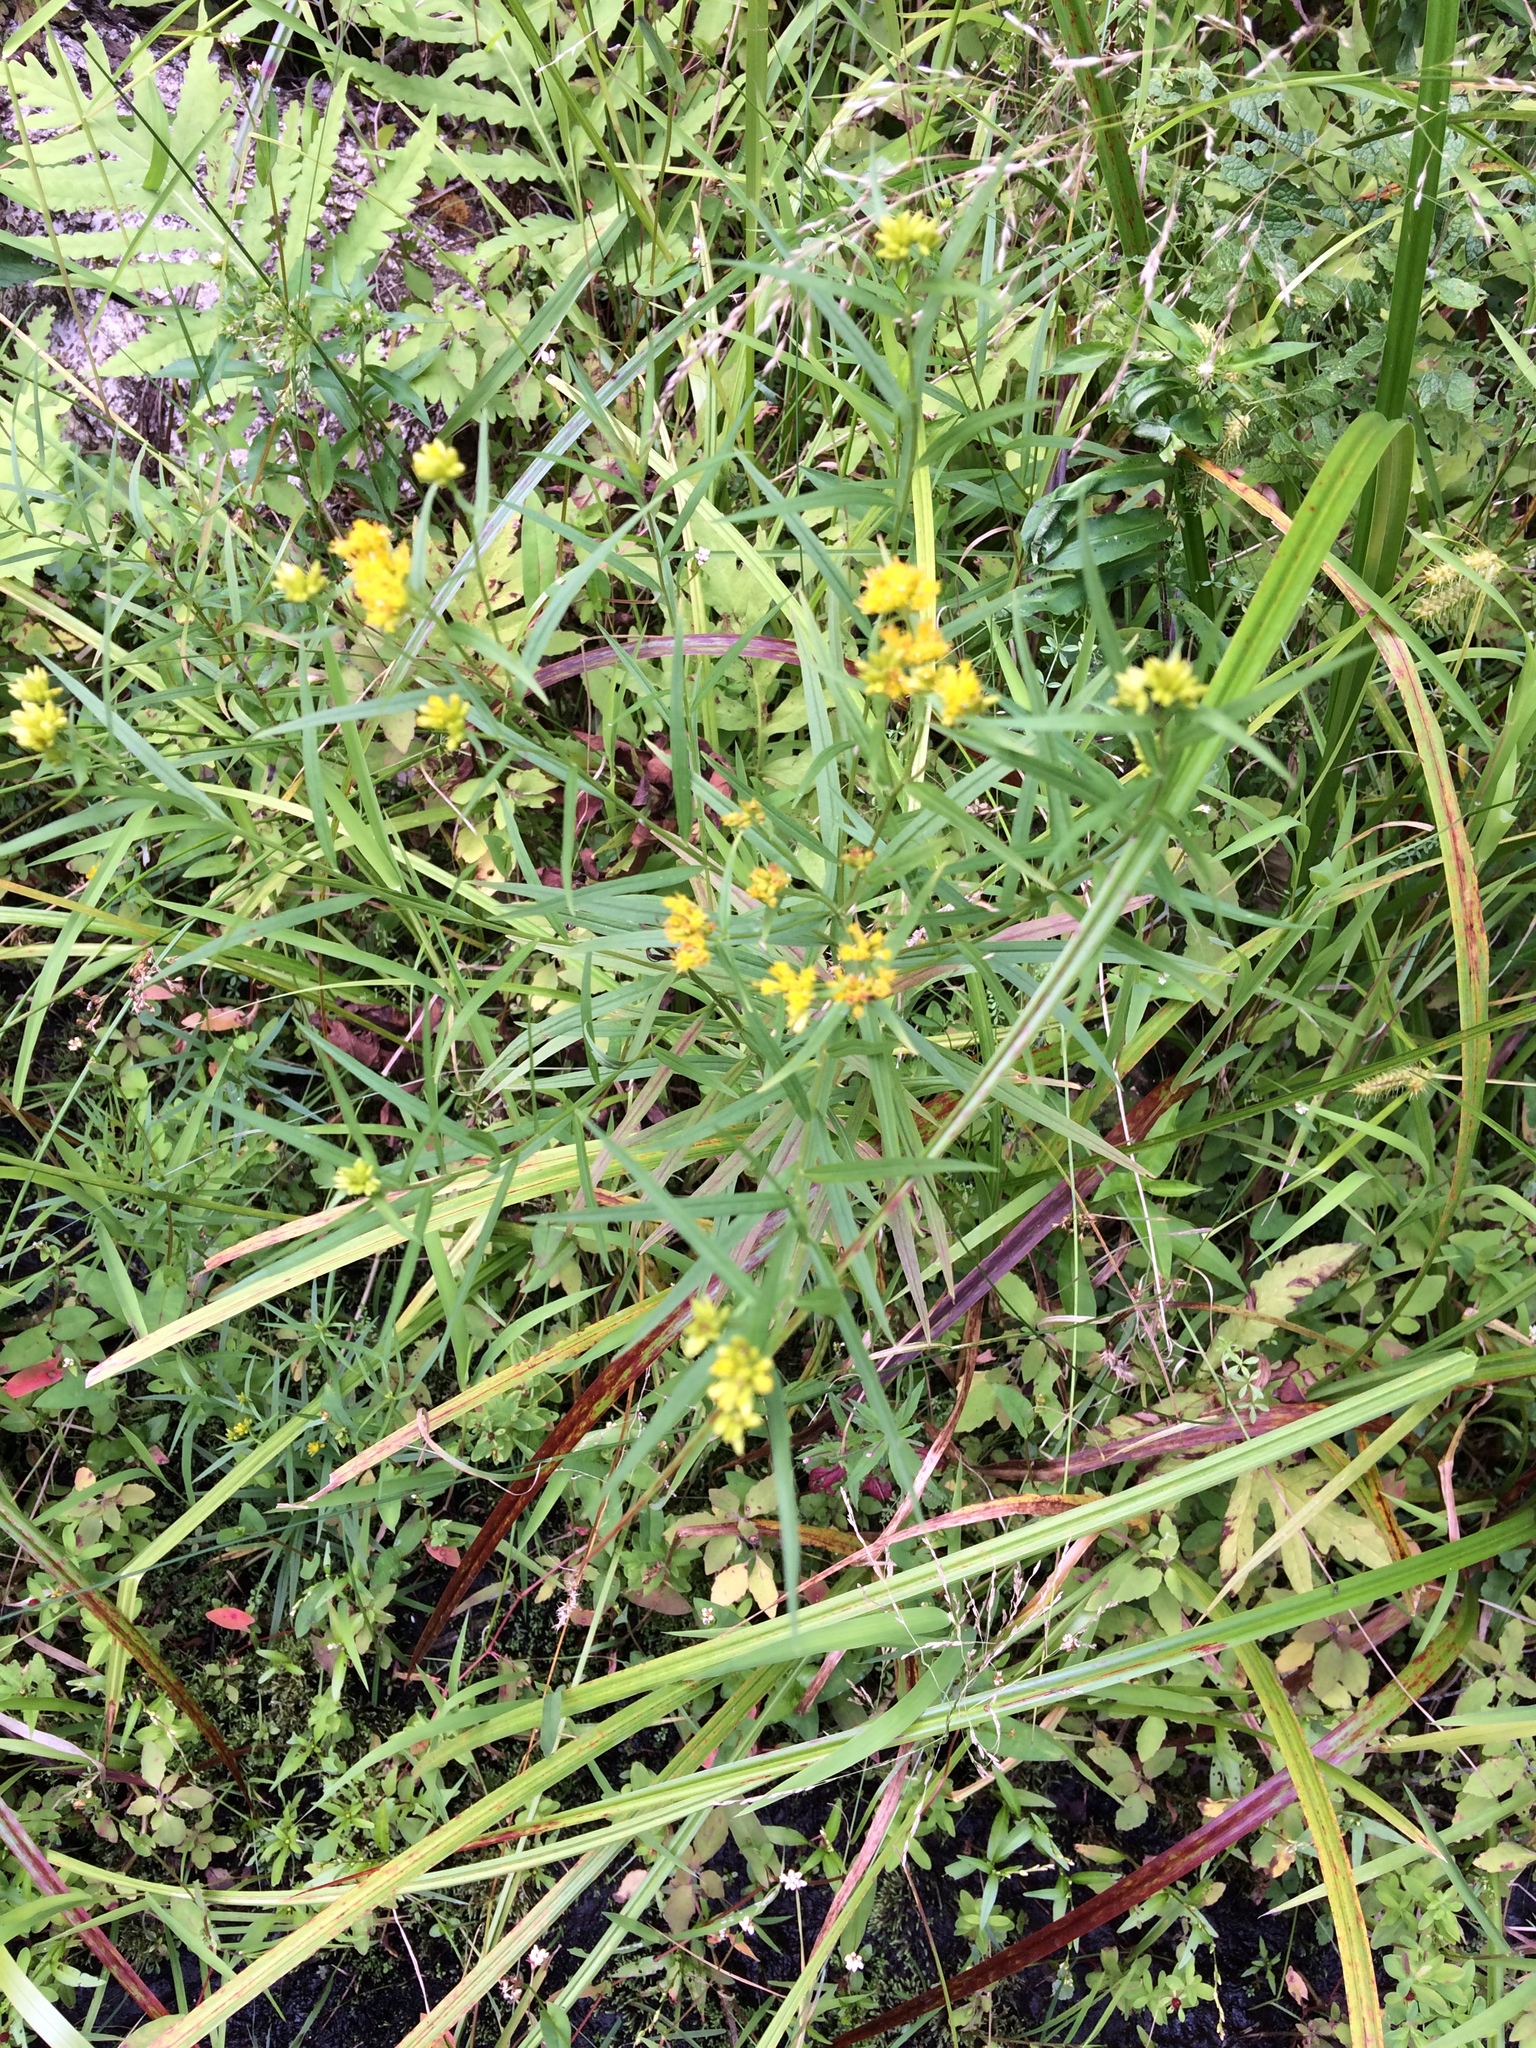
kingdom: Plantae
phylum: Tracheophyta
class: Magnoliopsida
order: Asterales
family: Asteraceae
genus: Euthamia
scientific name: Euthamia graminifolia
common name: Common goldentop
